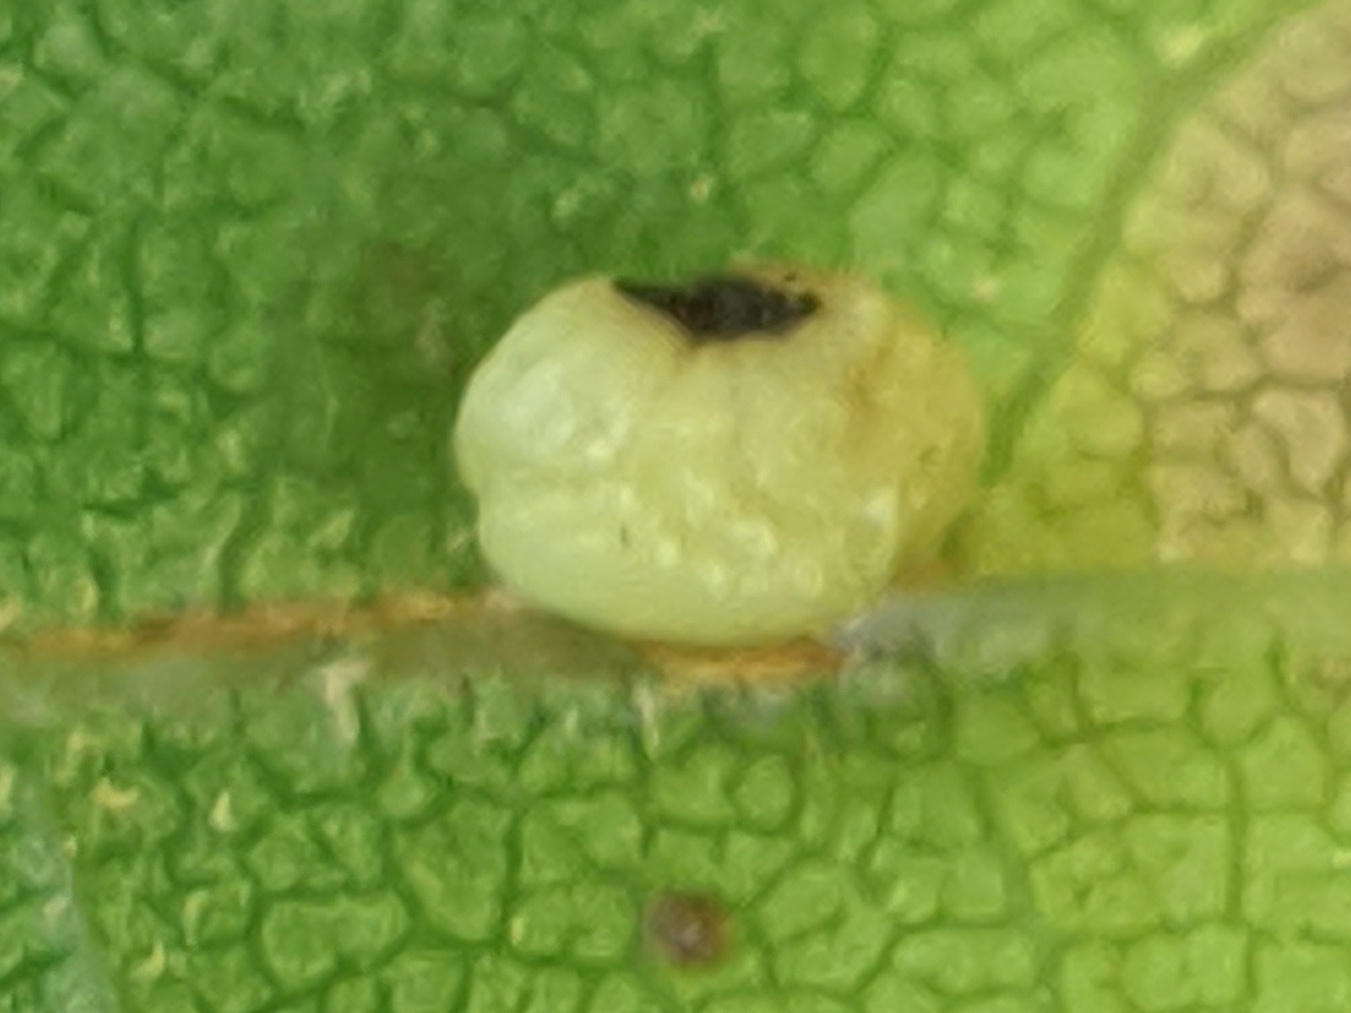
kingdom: Animalia
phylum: Arthropoda
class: Insecta
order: Hymenoptera
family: Cynipidae
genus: Kokkocynips
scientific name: Kokkocynips rileyi
